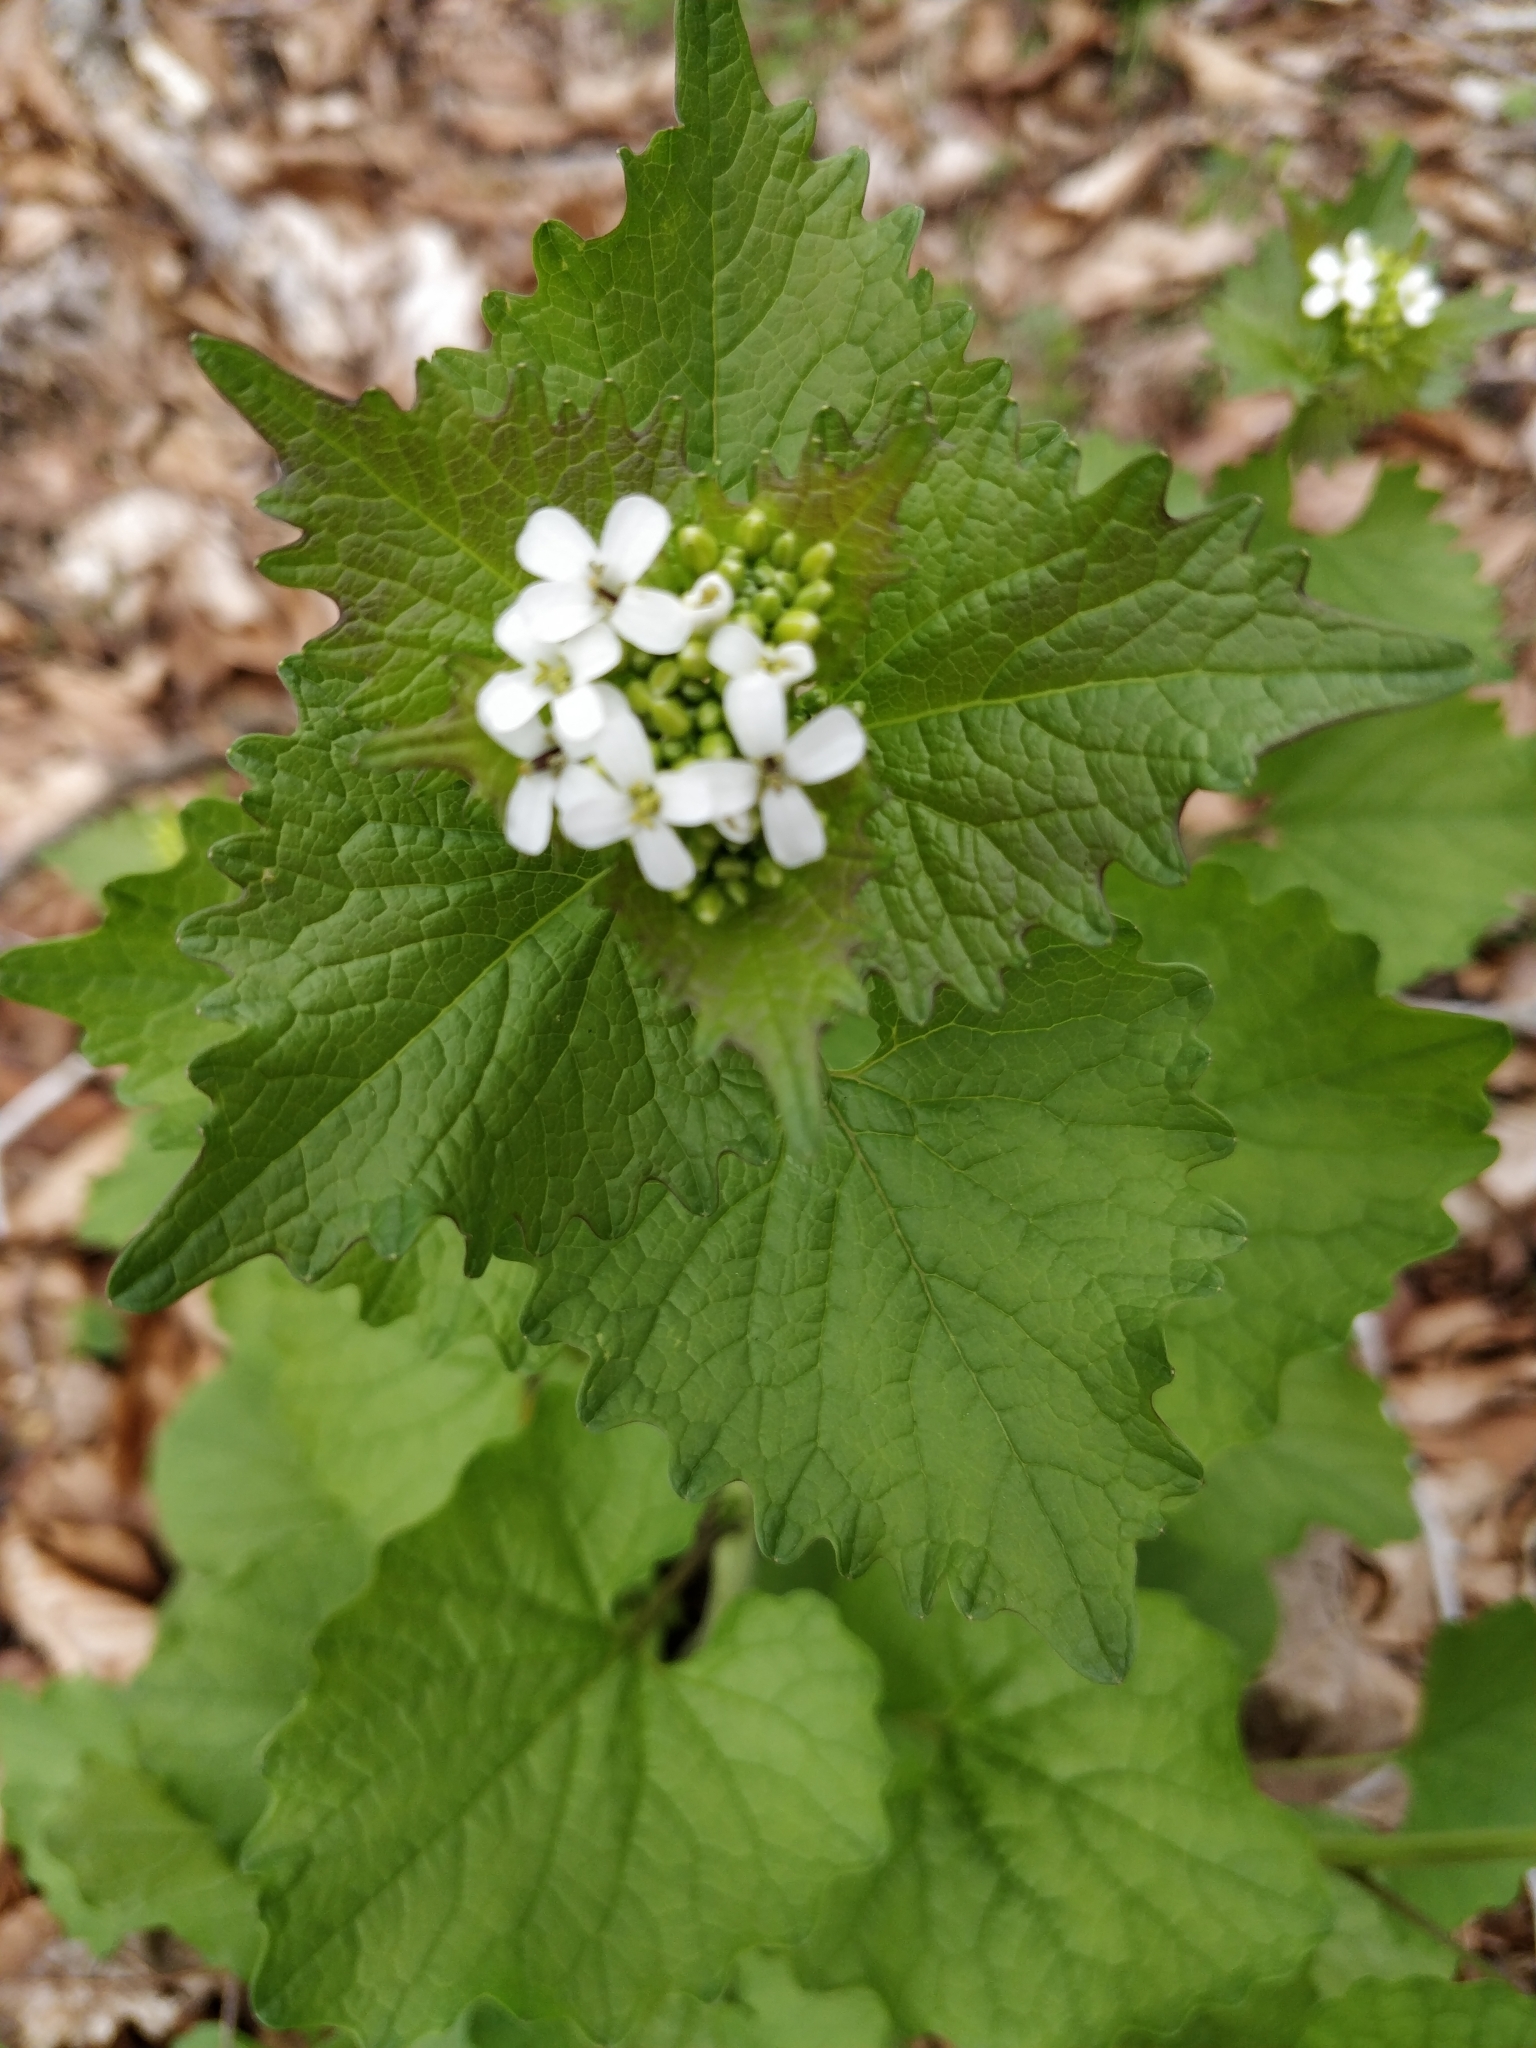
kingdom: Plantae
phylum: Tracheophyta
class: Magnoliopsida
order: Brassicales
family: Brassicaceae
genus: Alliaria
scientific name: Alliaria petiolata
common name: Garlic mustard
